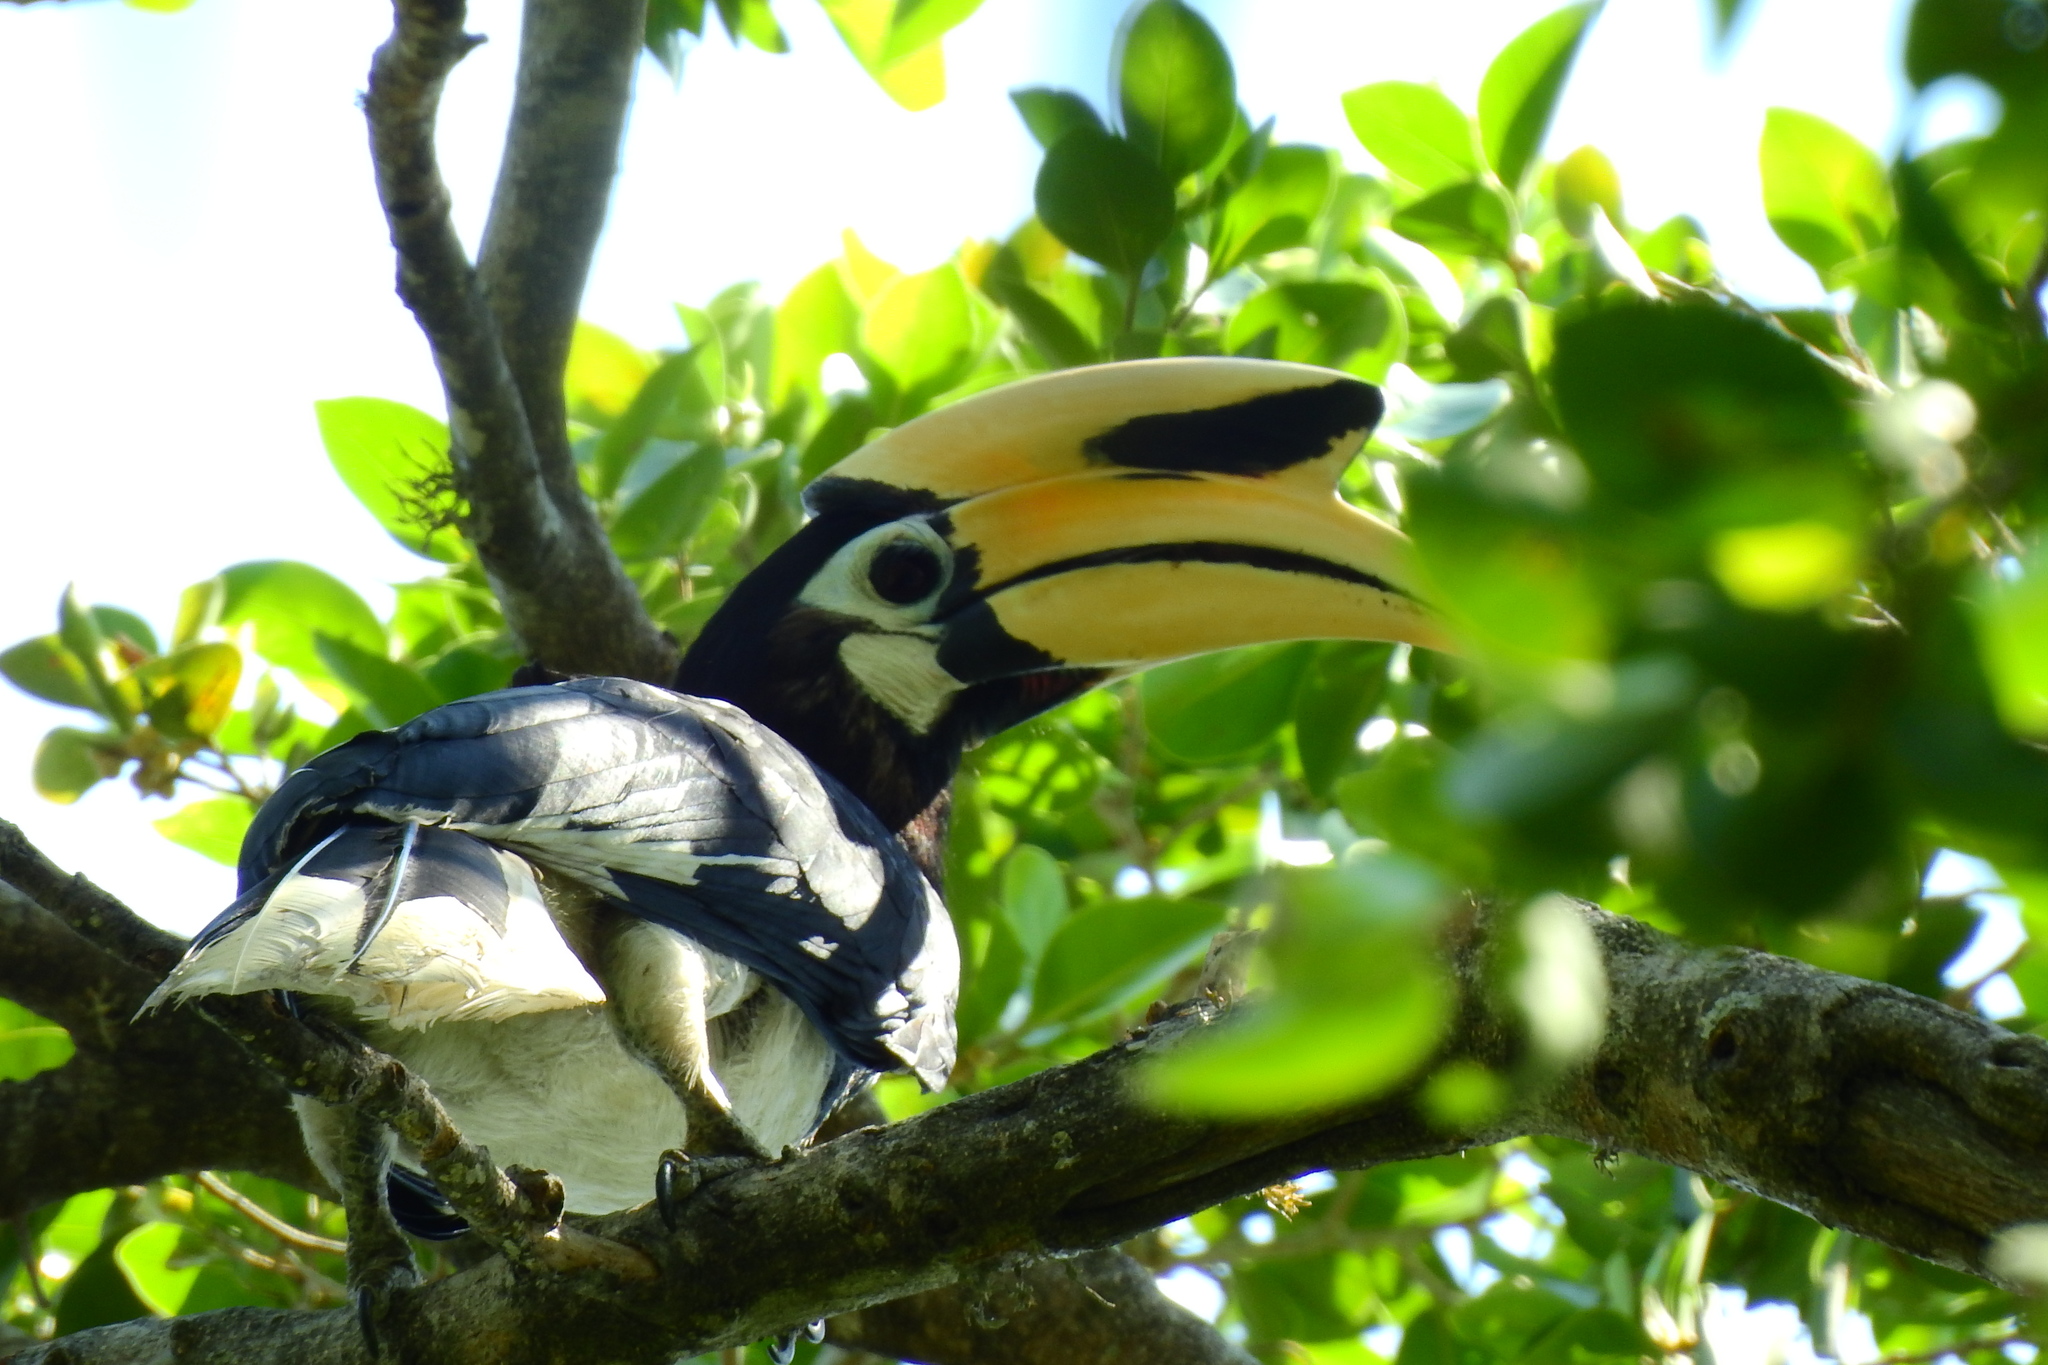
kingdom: Animalia
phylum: Chordata
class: Aves
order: Bucerotiformes
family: Bucerotidae
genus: Anthracoceros
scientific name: Anthracoceros albirostris
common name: Oriental pied-hornbill
